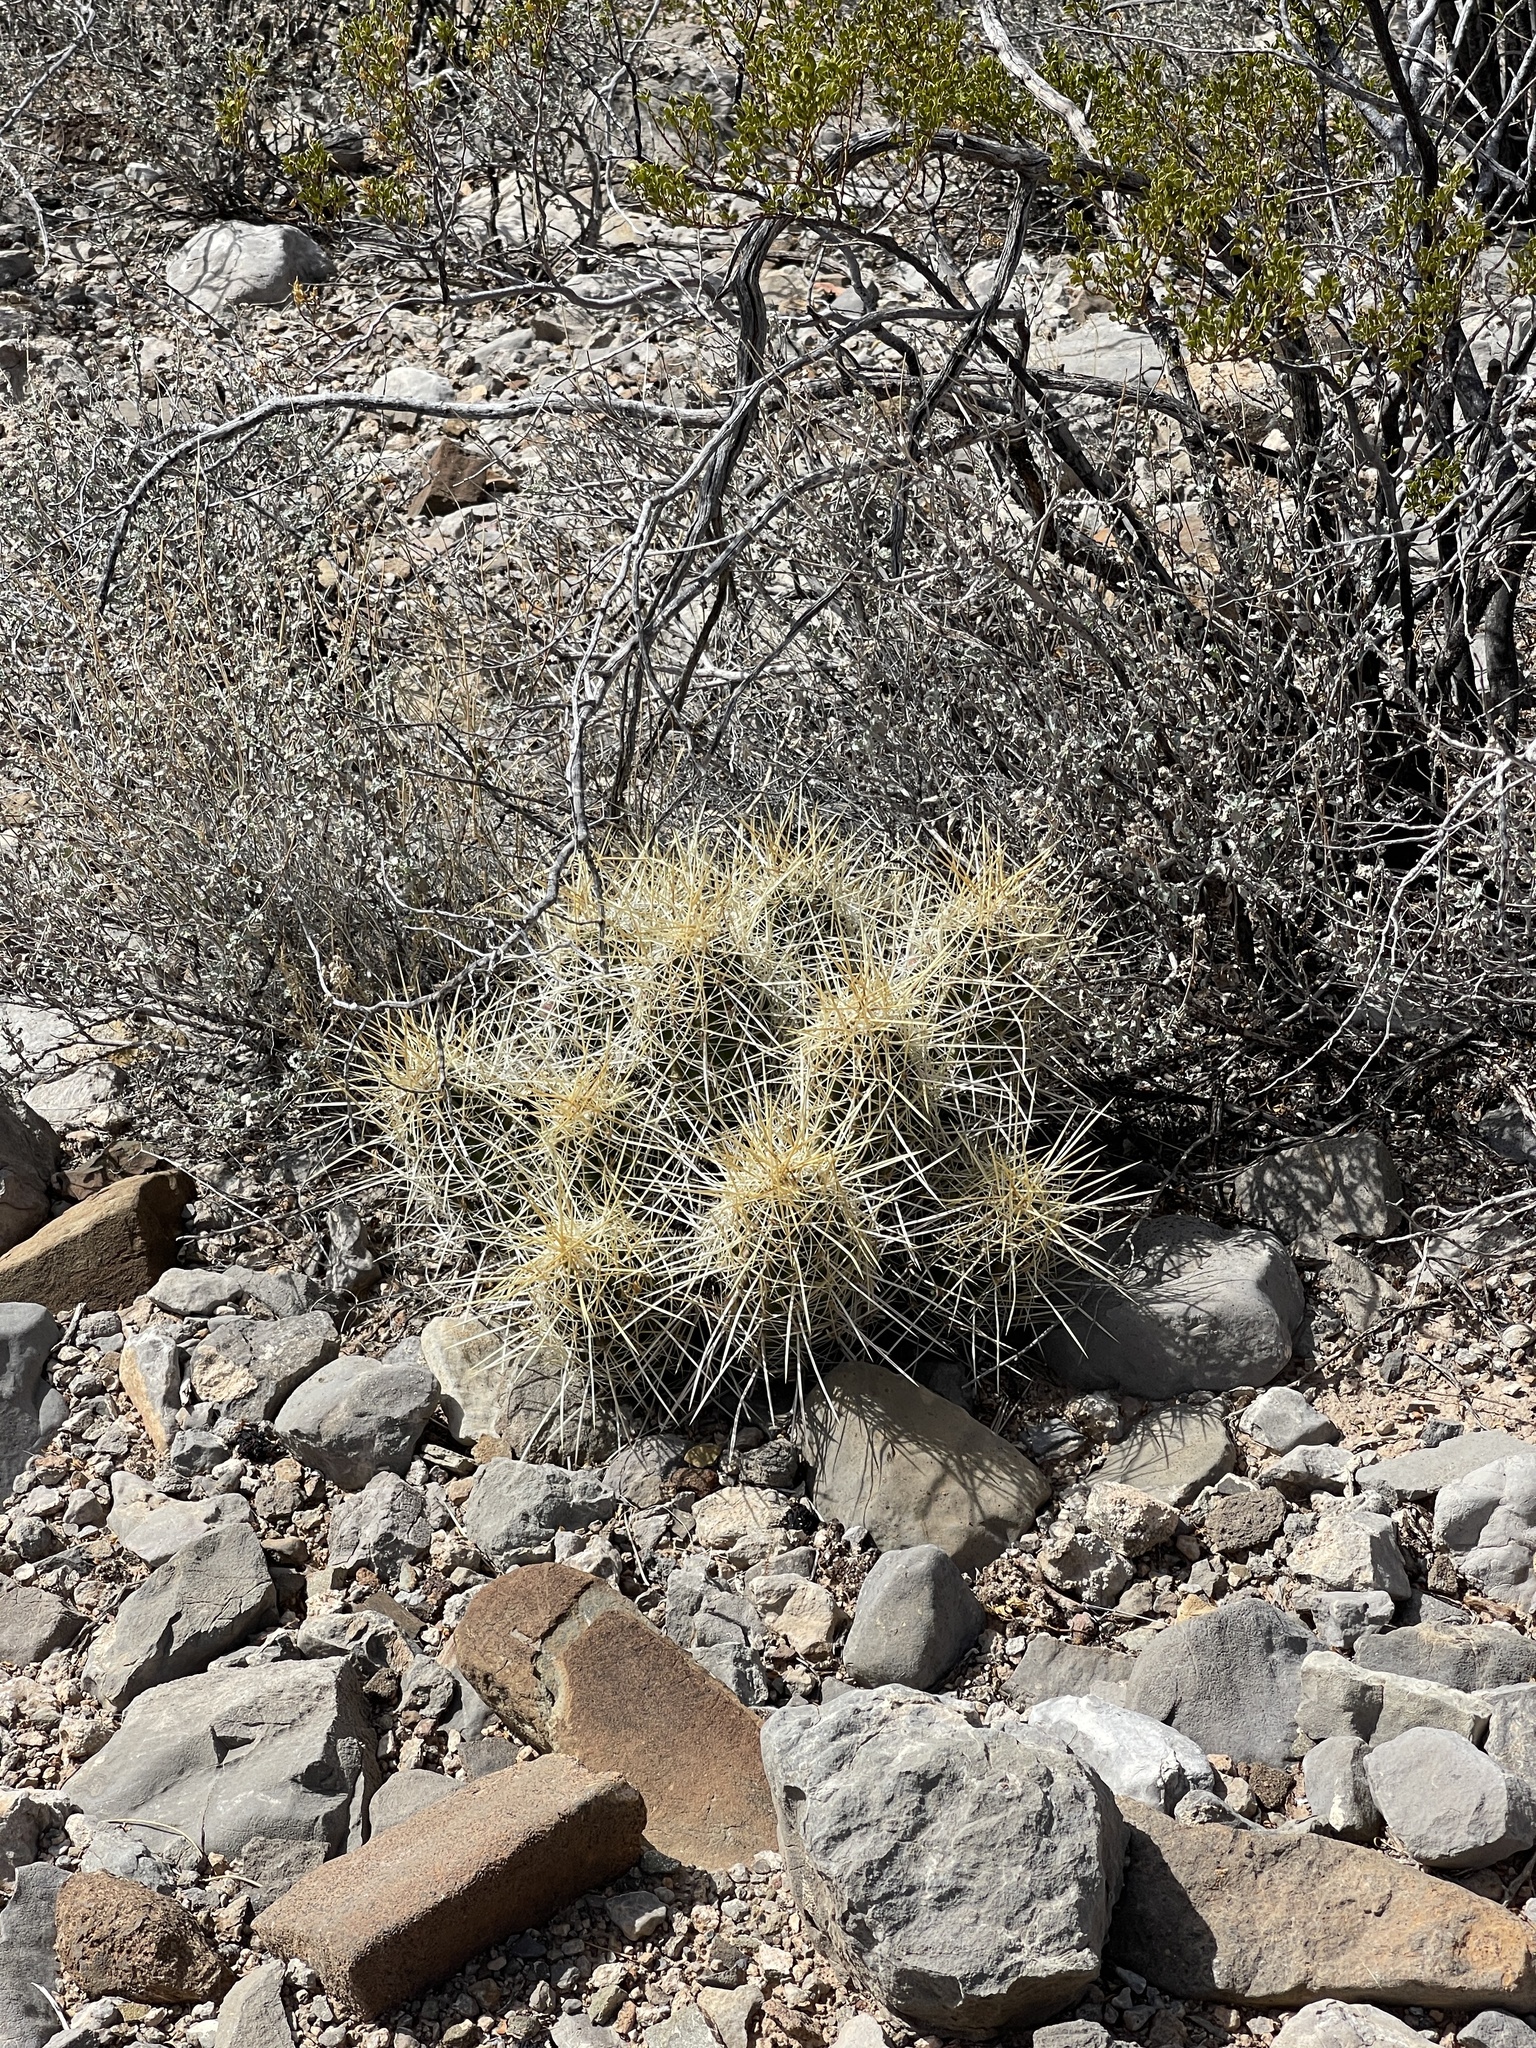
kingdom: Plantae
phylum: Tracheophyta
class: Magnoliopsida
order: Caryophyllales
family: Cactaceae
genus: Echinocereus
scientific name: Echinocereus stramineus
